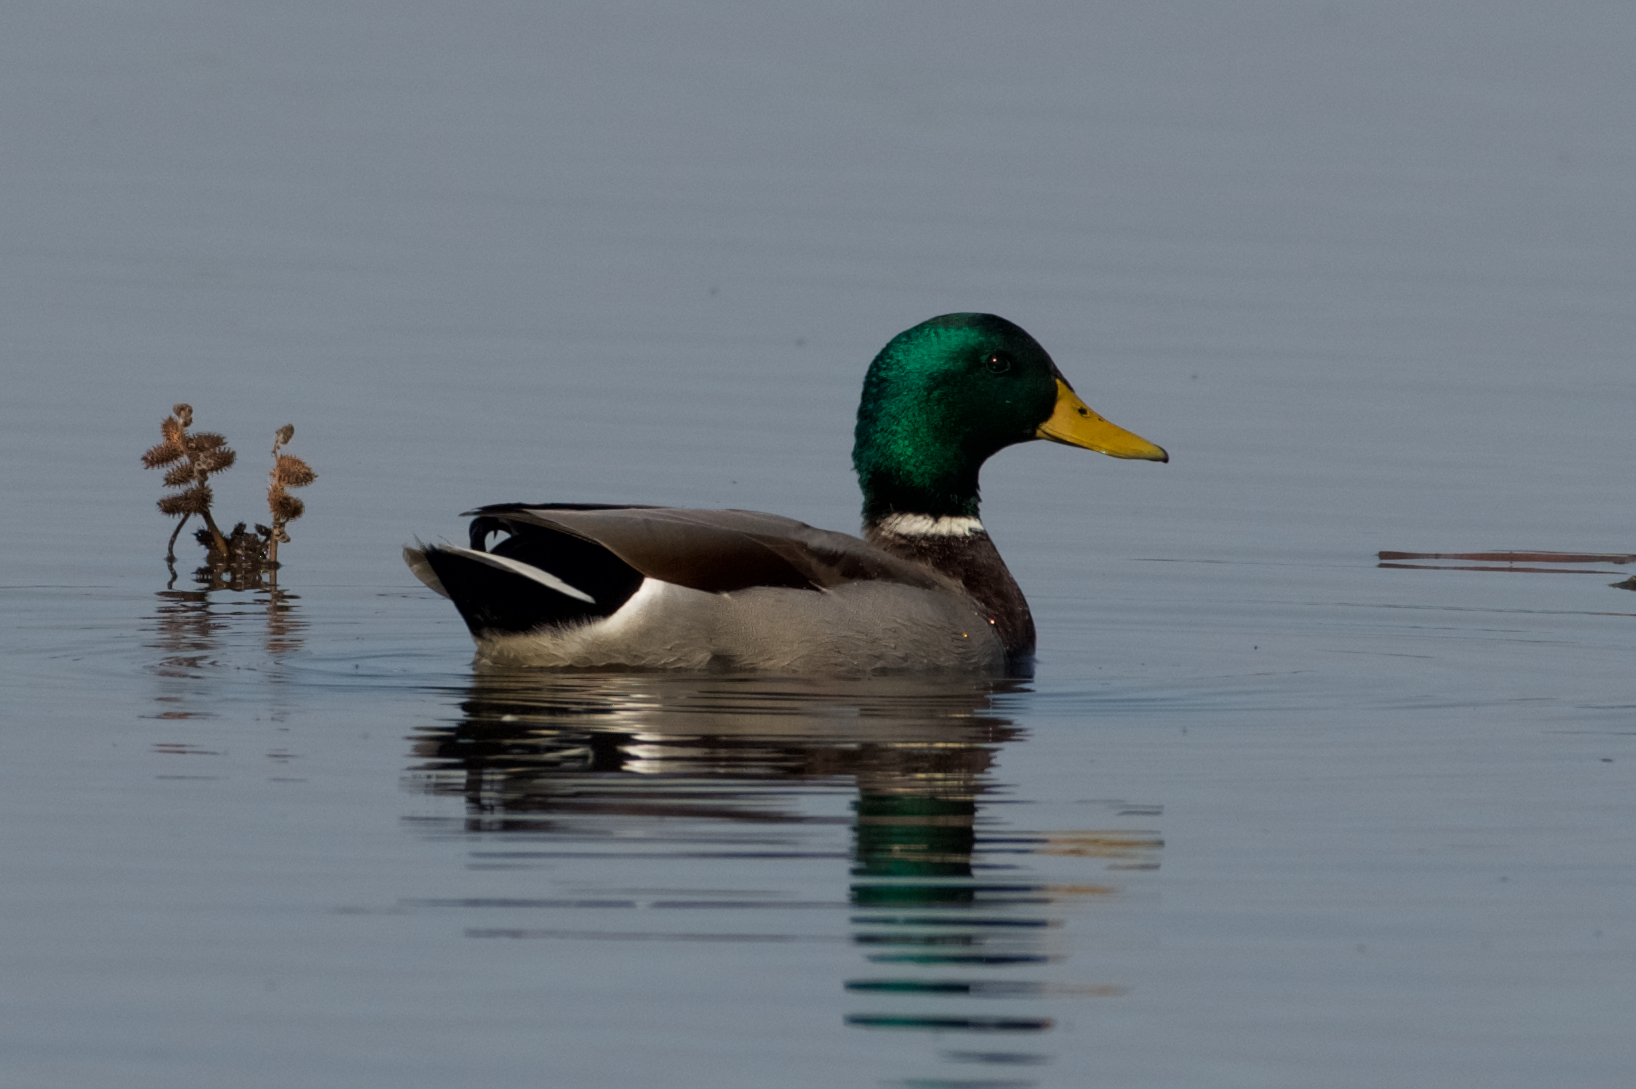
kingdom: Animalia
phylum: Chordata
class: Aves
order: Anseriformes
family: Anatidae
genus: Anas
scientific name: Anas platyrhynchos
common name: Mallard
